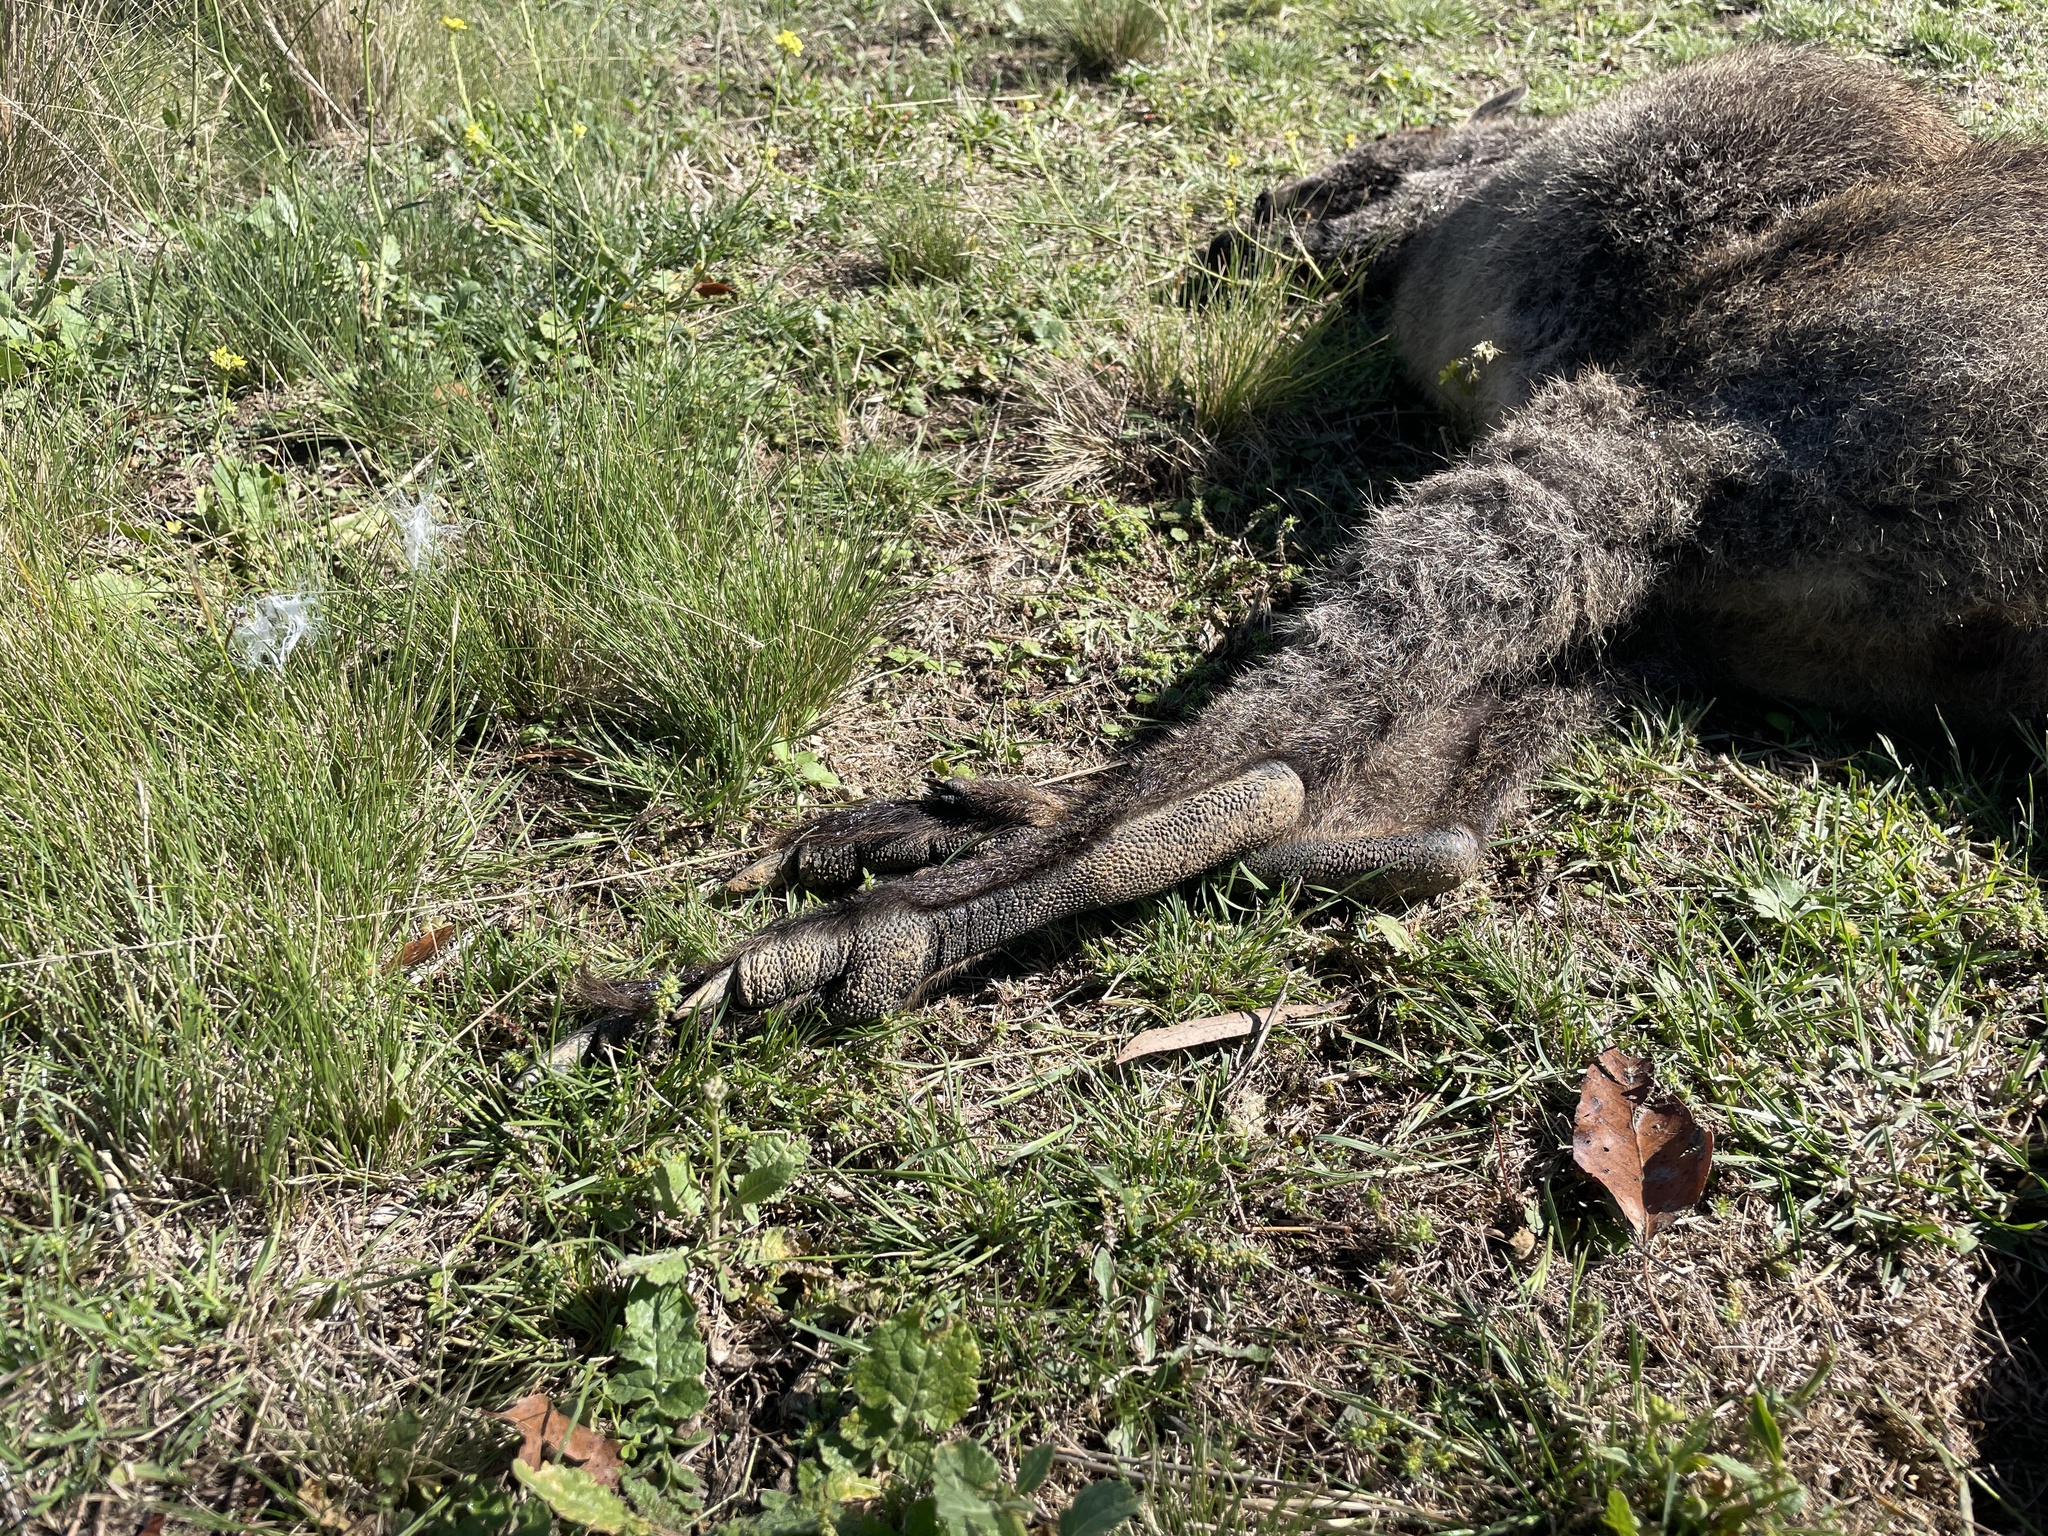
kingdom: Animalia
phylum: Chordata
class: Mammalia
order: Diprotodontia
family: Macropodidae
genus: Wallabia
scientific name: Wallabia bicolor
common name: Swamp wallaby
